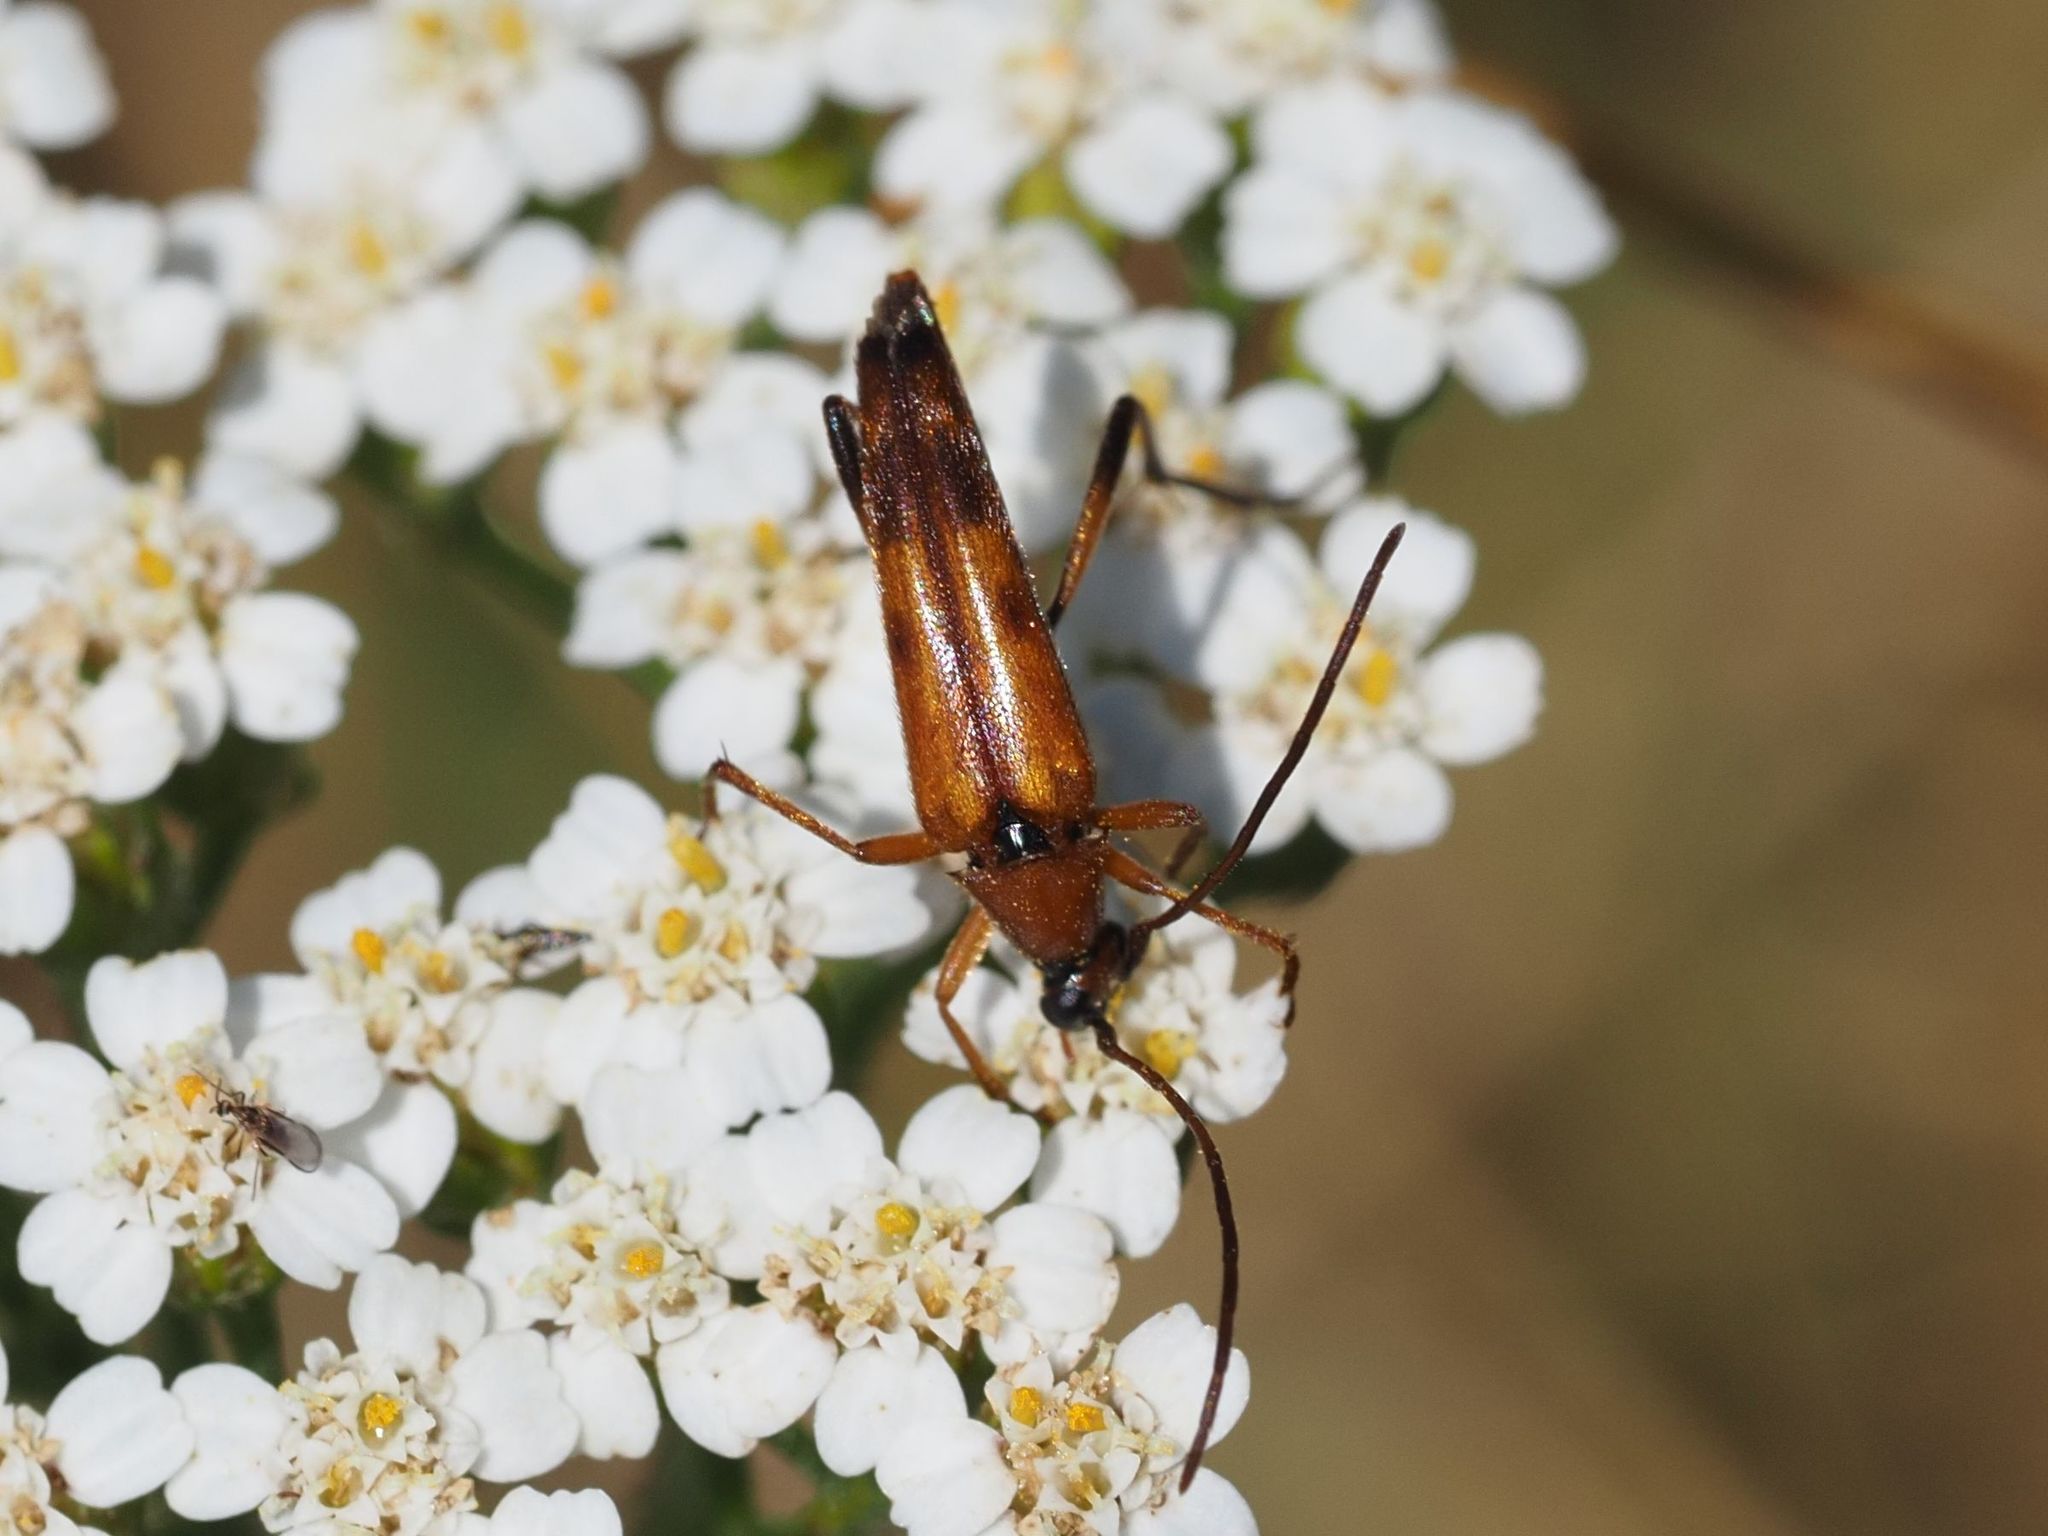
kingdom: Animalia
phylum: Arthropoda
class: Insecta
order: Coleoptera
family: Cerambycidae
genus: Stenurella
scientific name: Stenurella septempunctata
